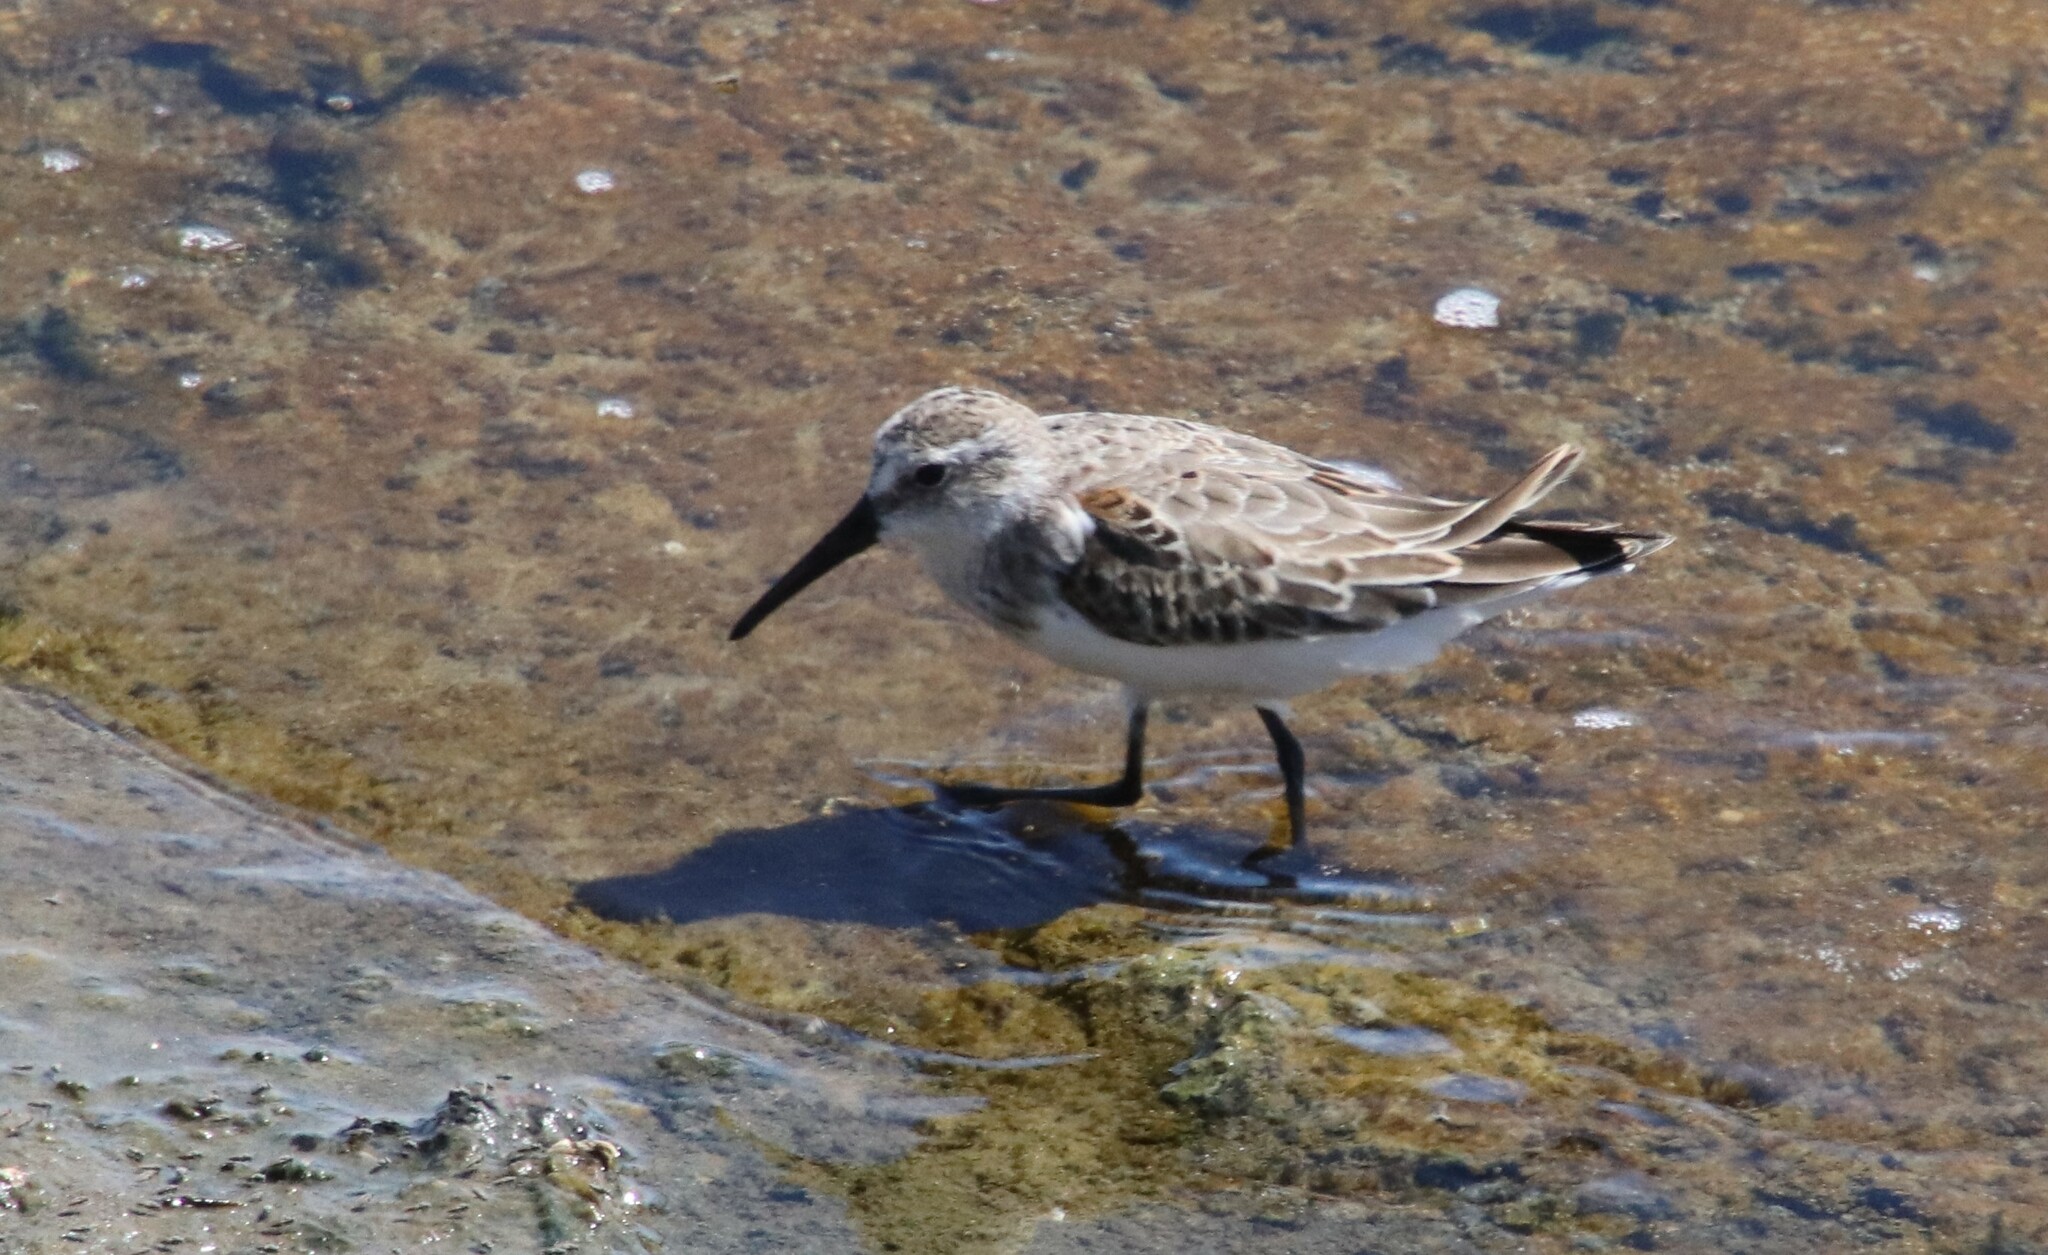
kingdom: Animalia
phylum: Chordata
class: Aves
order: Charadriiformes
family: Scolopacidae
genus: Calidris
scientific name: Calidris mauri
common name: Western sandpiper
